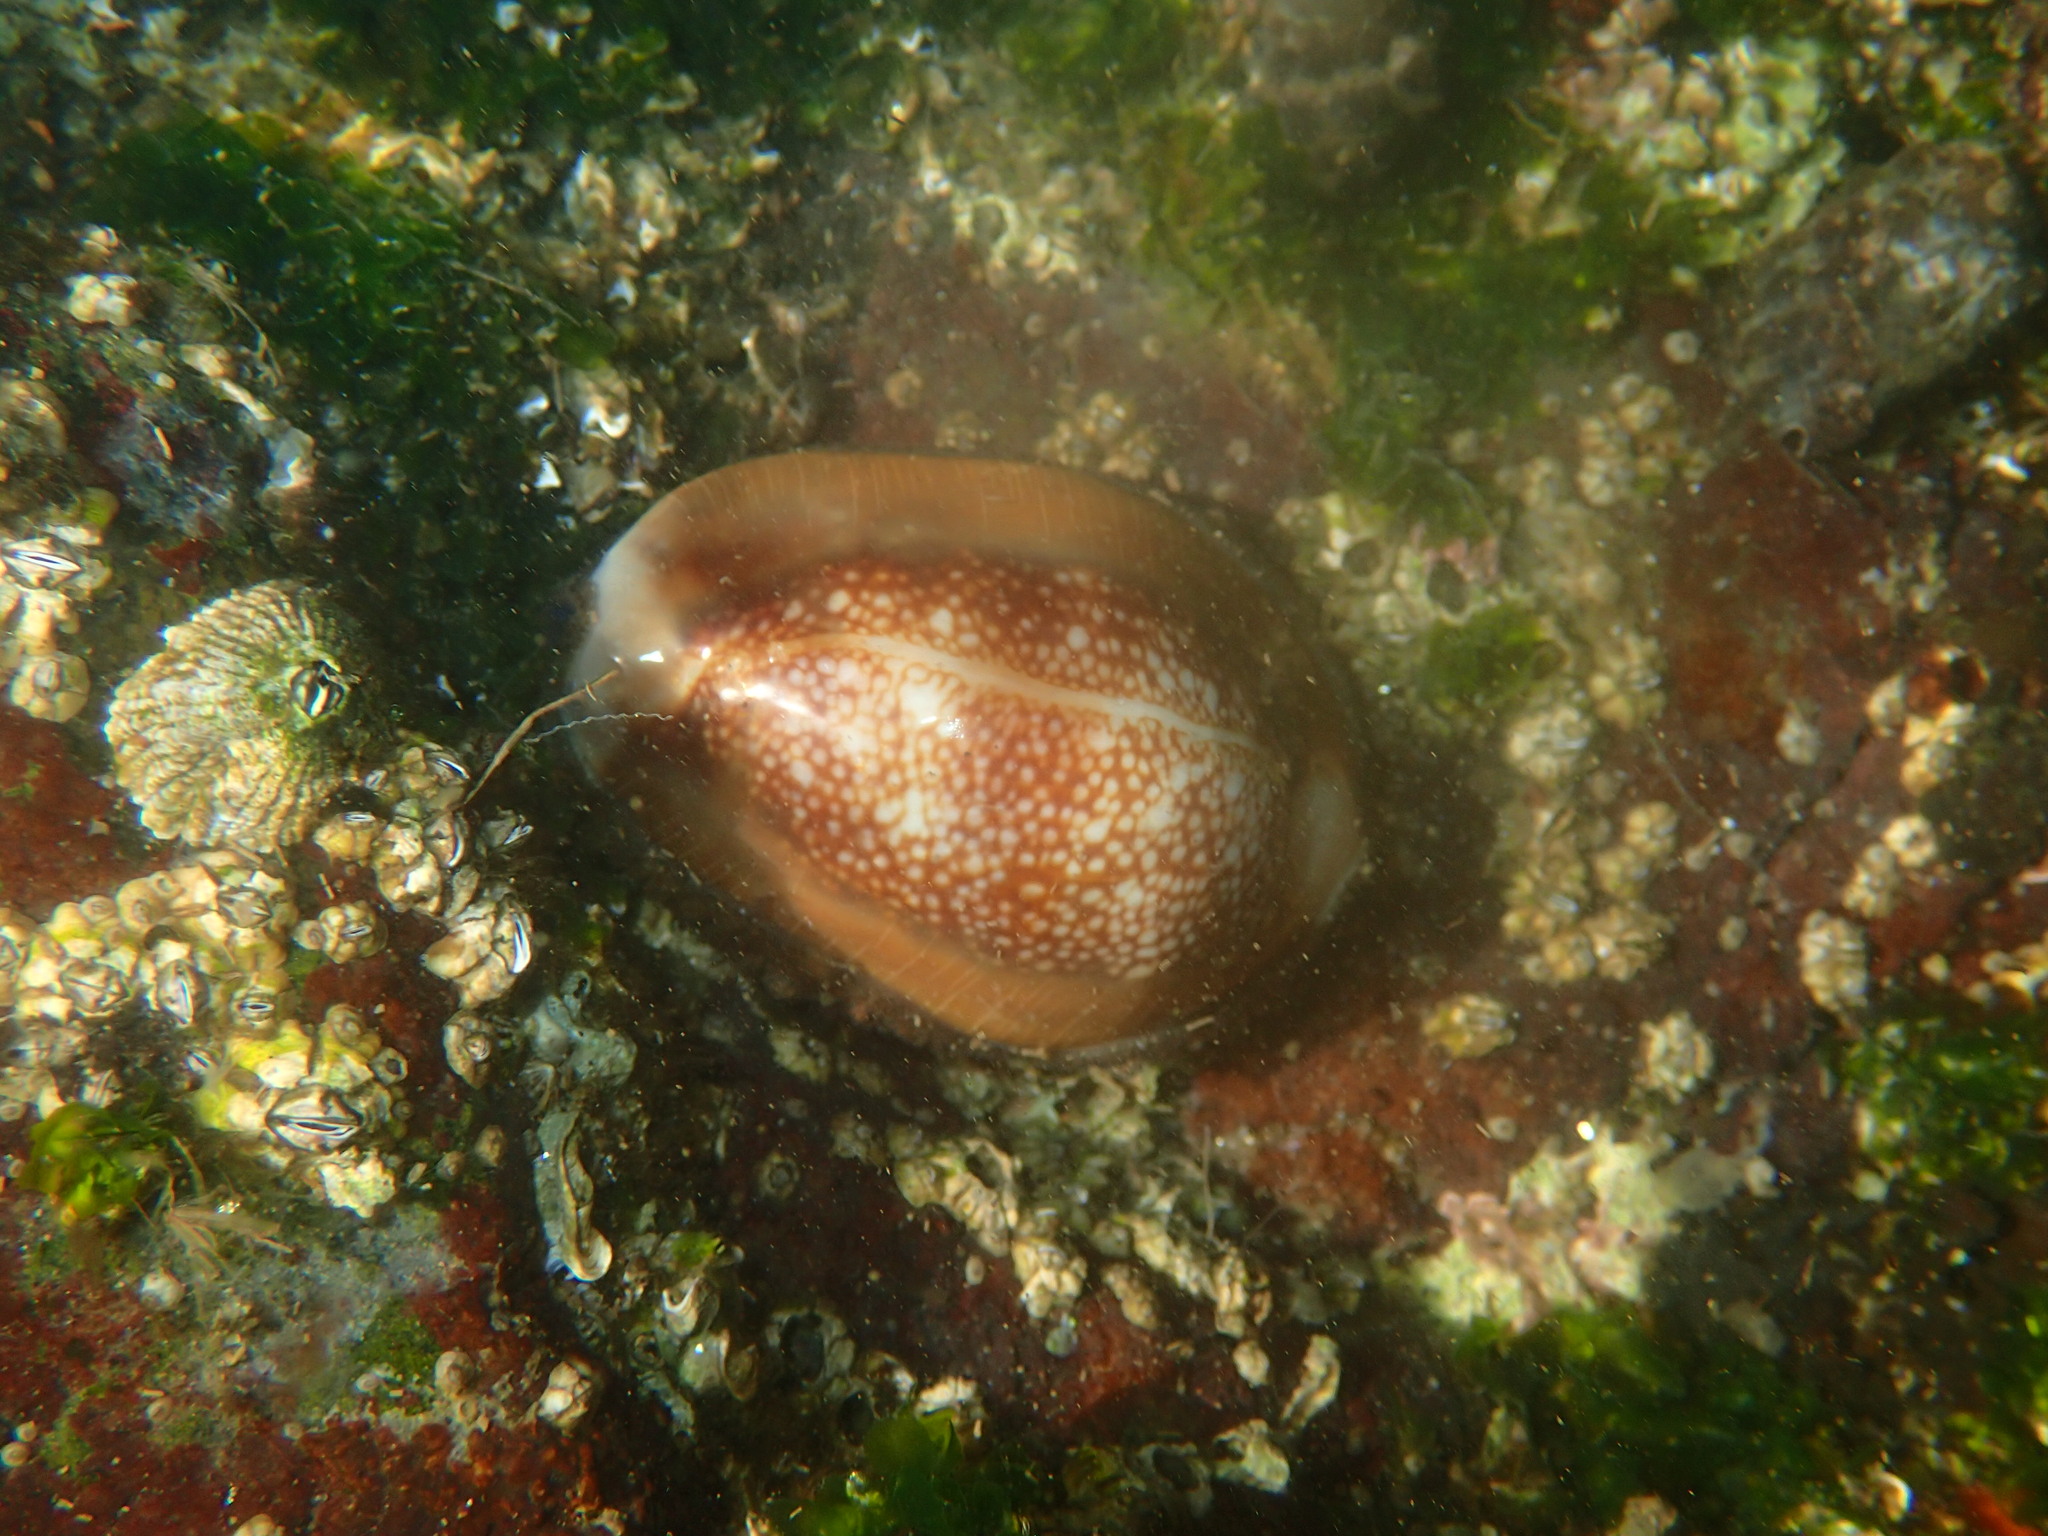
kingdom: Animalia
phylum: Mollusca
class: Gastropoda
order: Littorinimorpha
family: Cypraeidae
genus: Monetaria
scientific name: Monetaria caputserpentis
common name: Serpent's head cowrie
